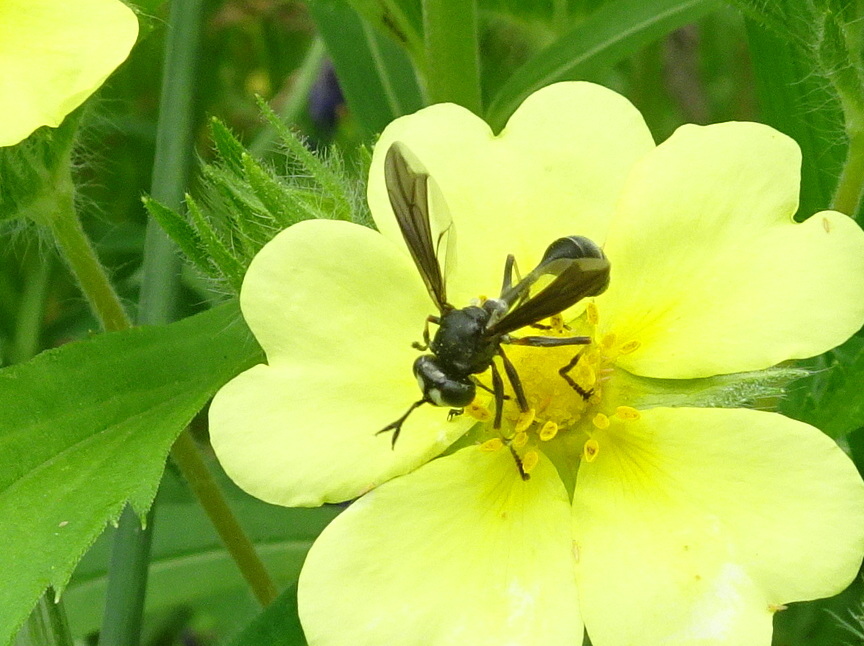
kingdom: Animalia
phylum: Arthropoda
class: Insecta
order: Diptera
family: Conopidae
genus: Physocephala
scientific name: Physocephala tibialis
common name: Common eastern physocephala
